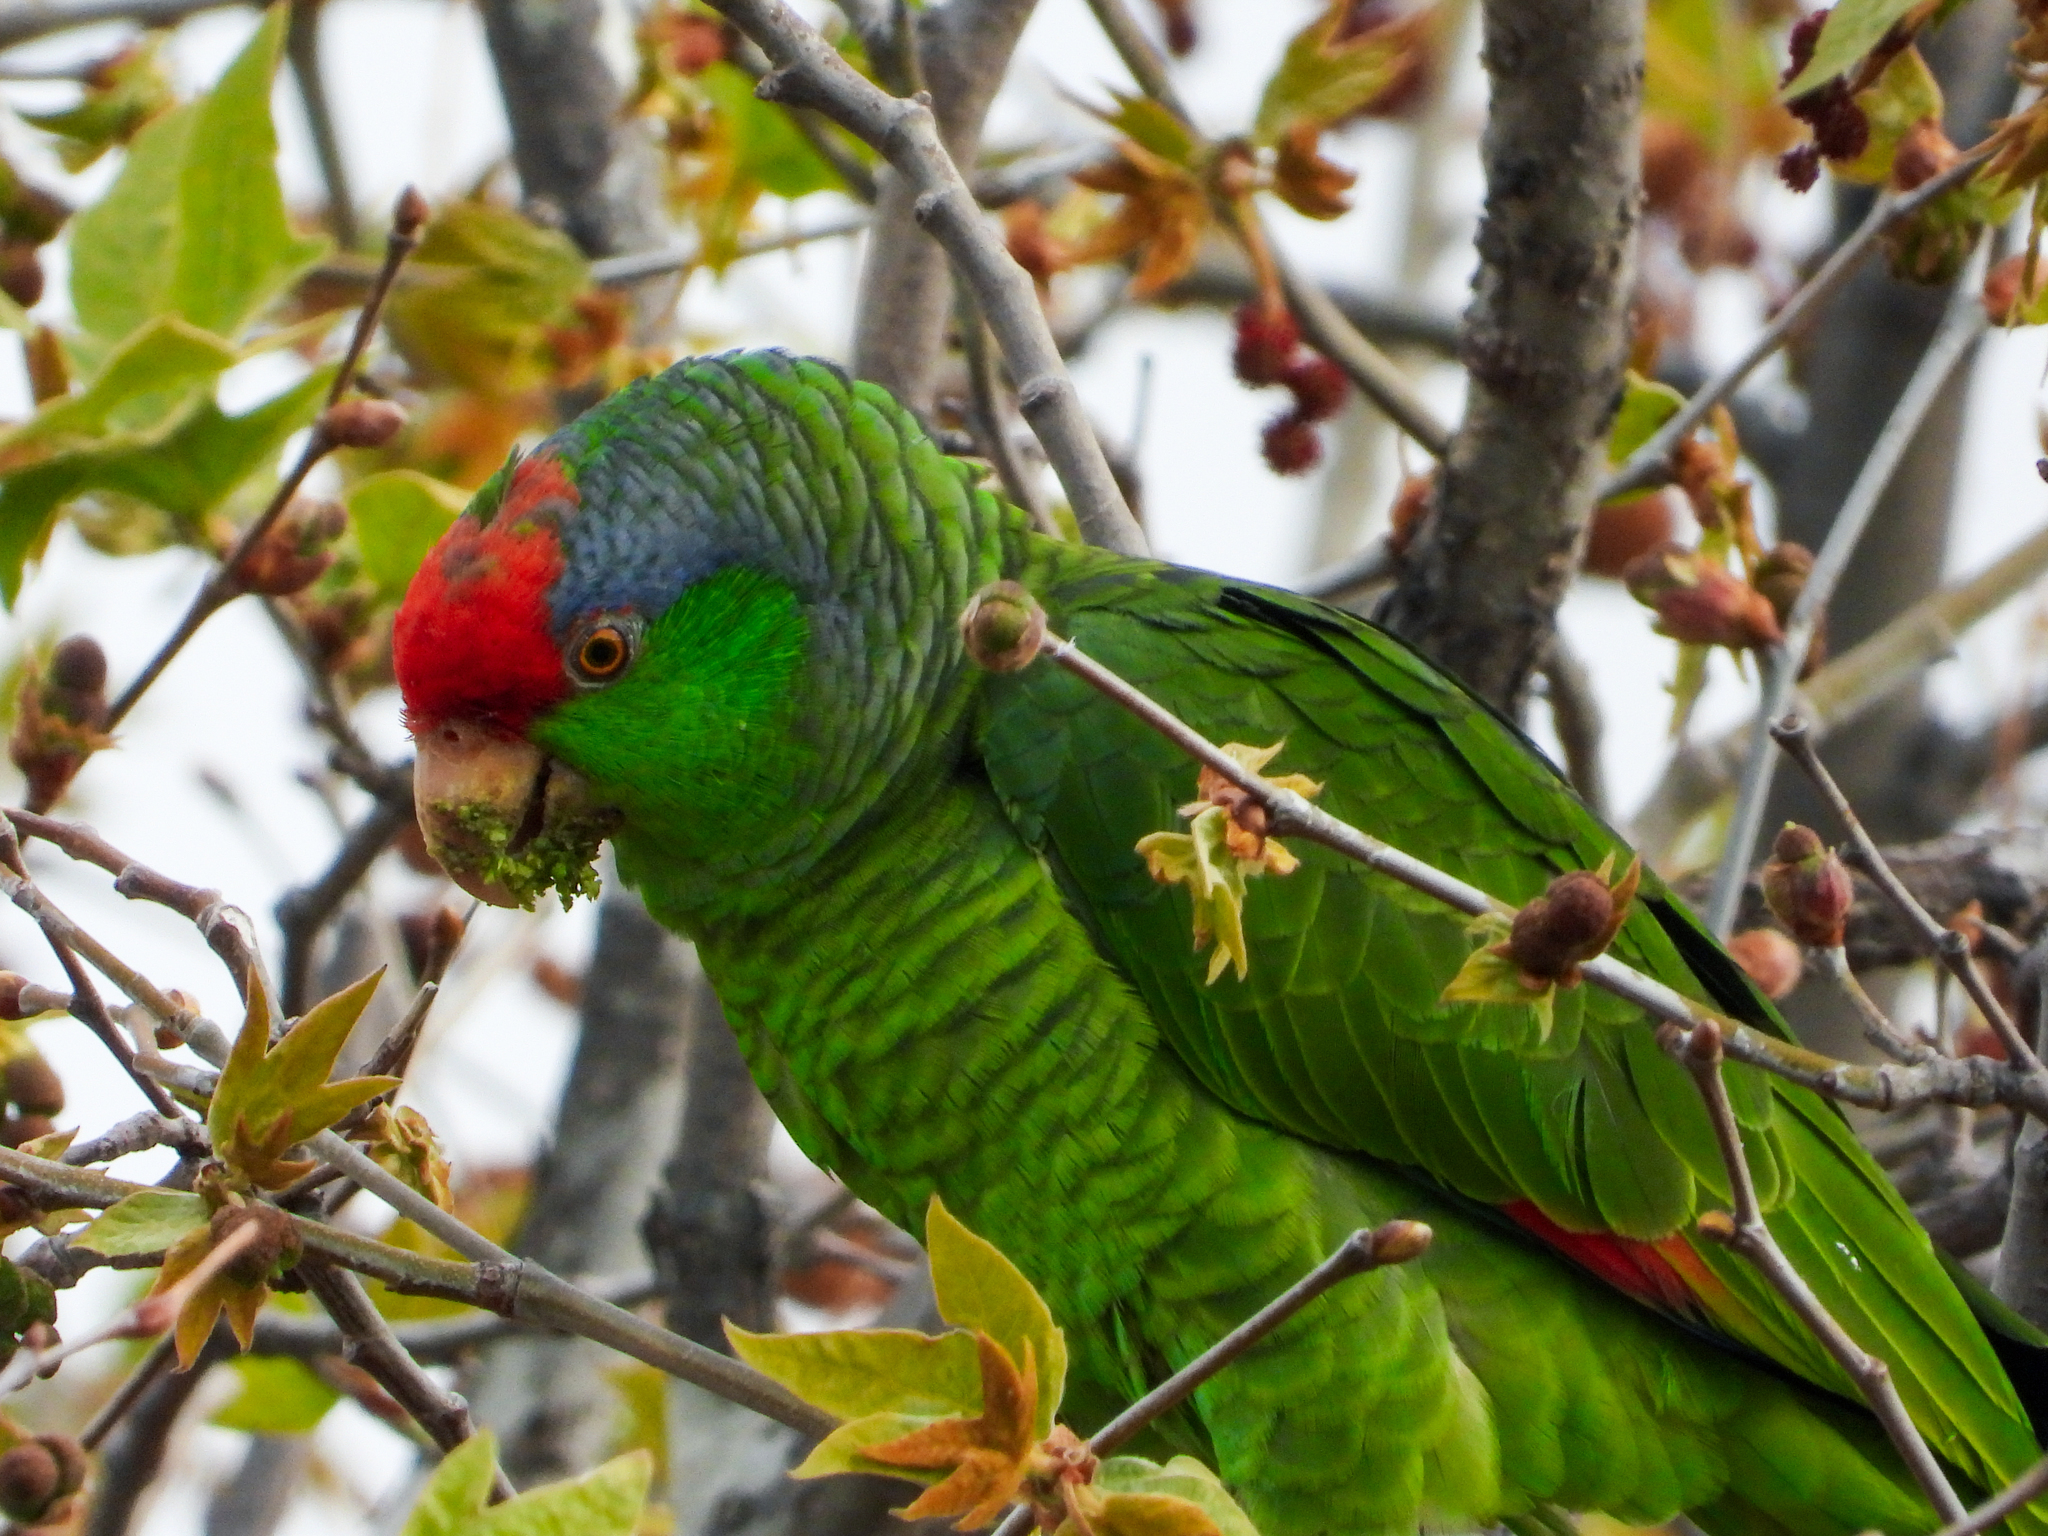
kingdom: Animalia
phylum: Chordata
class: Aves
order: Psittaciformes
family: Psittacidae
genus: Amazona
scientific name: Amazona viridigenalis
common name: Red-crowned amazon
